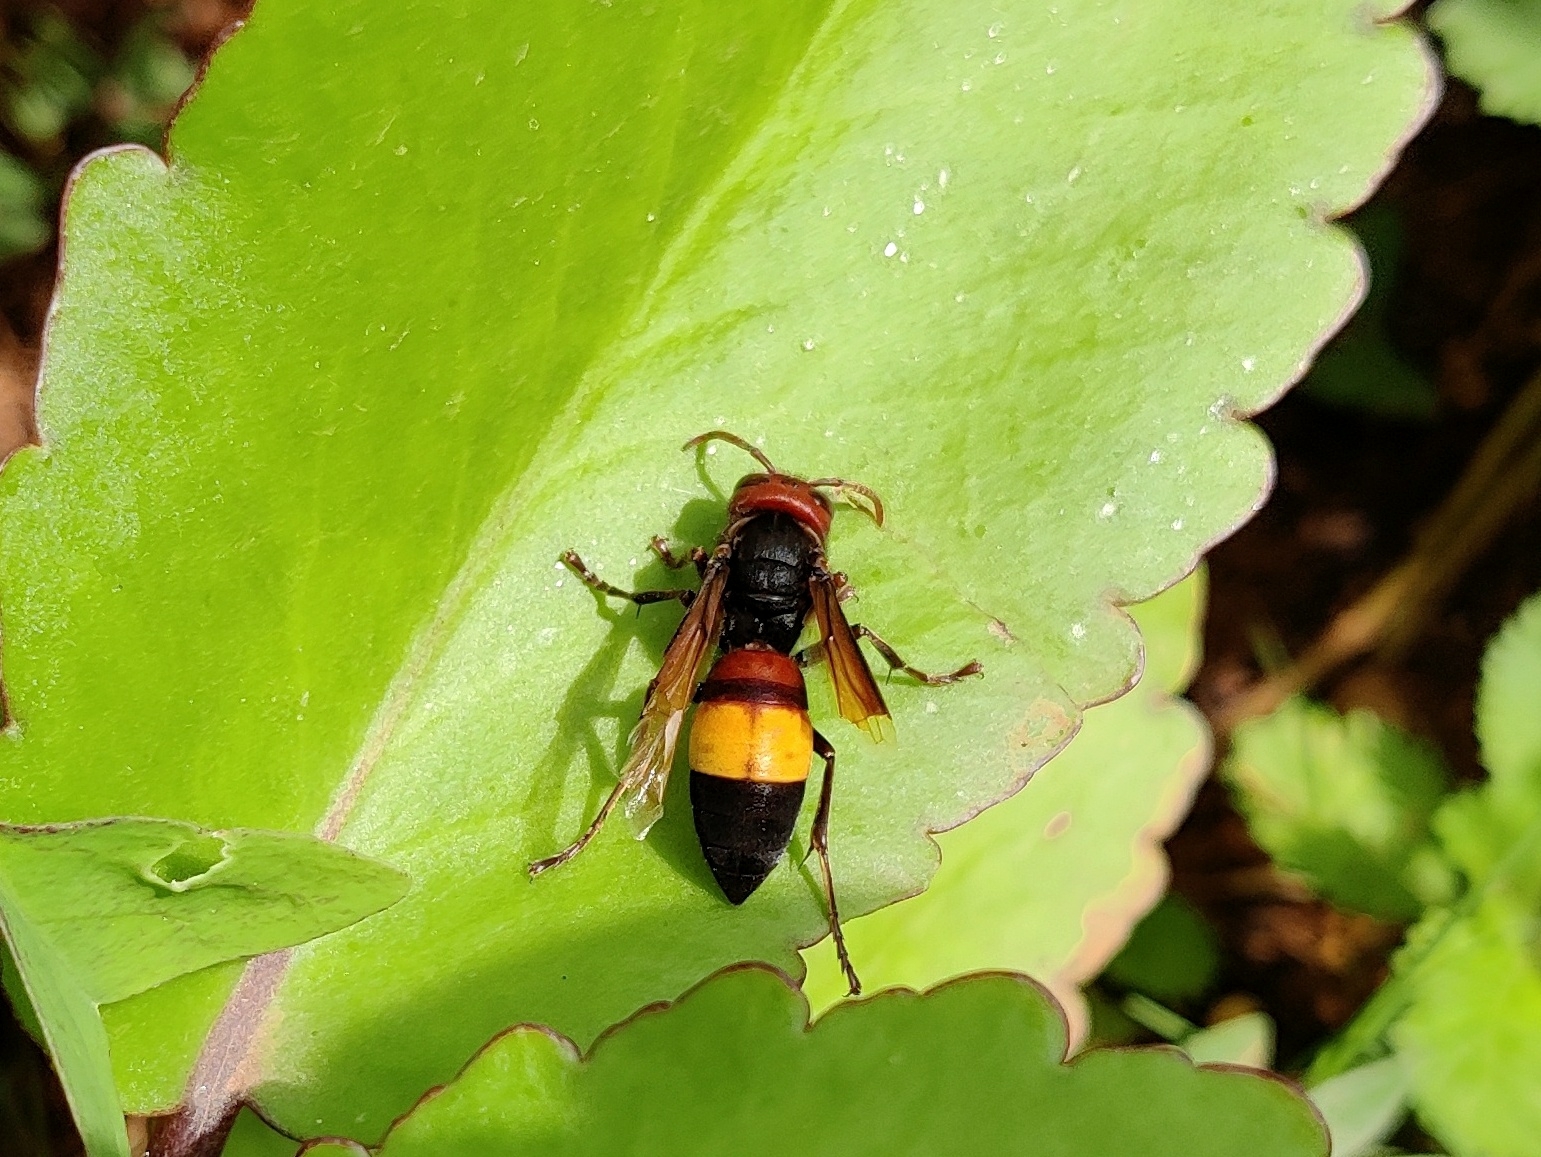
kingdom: Animalia
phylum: Arthropoda
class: Insecta
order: Hymenoptera
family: Vespidae
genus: Vespa
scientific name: Vespa affinis
